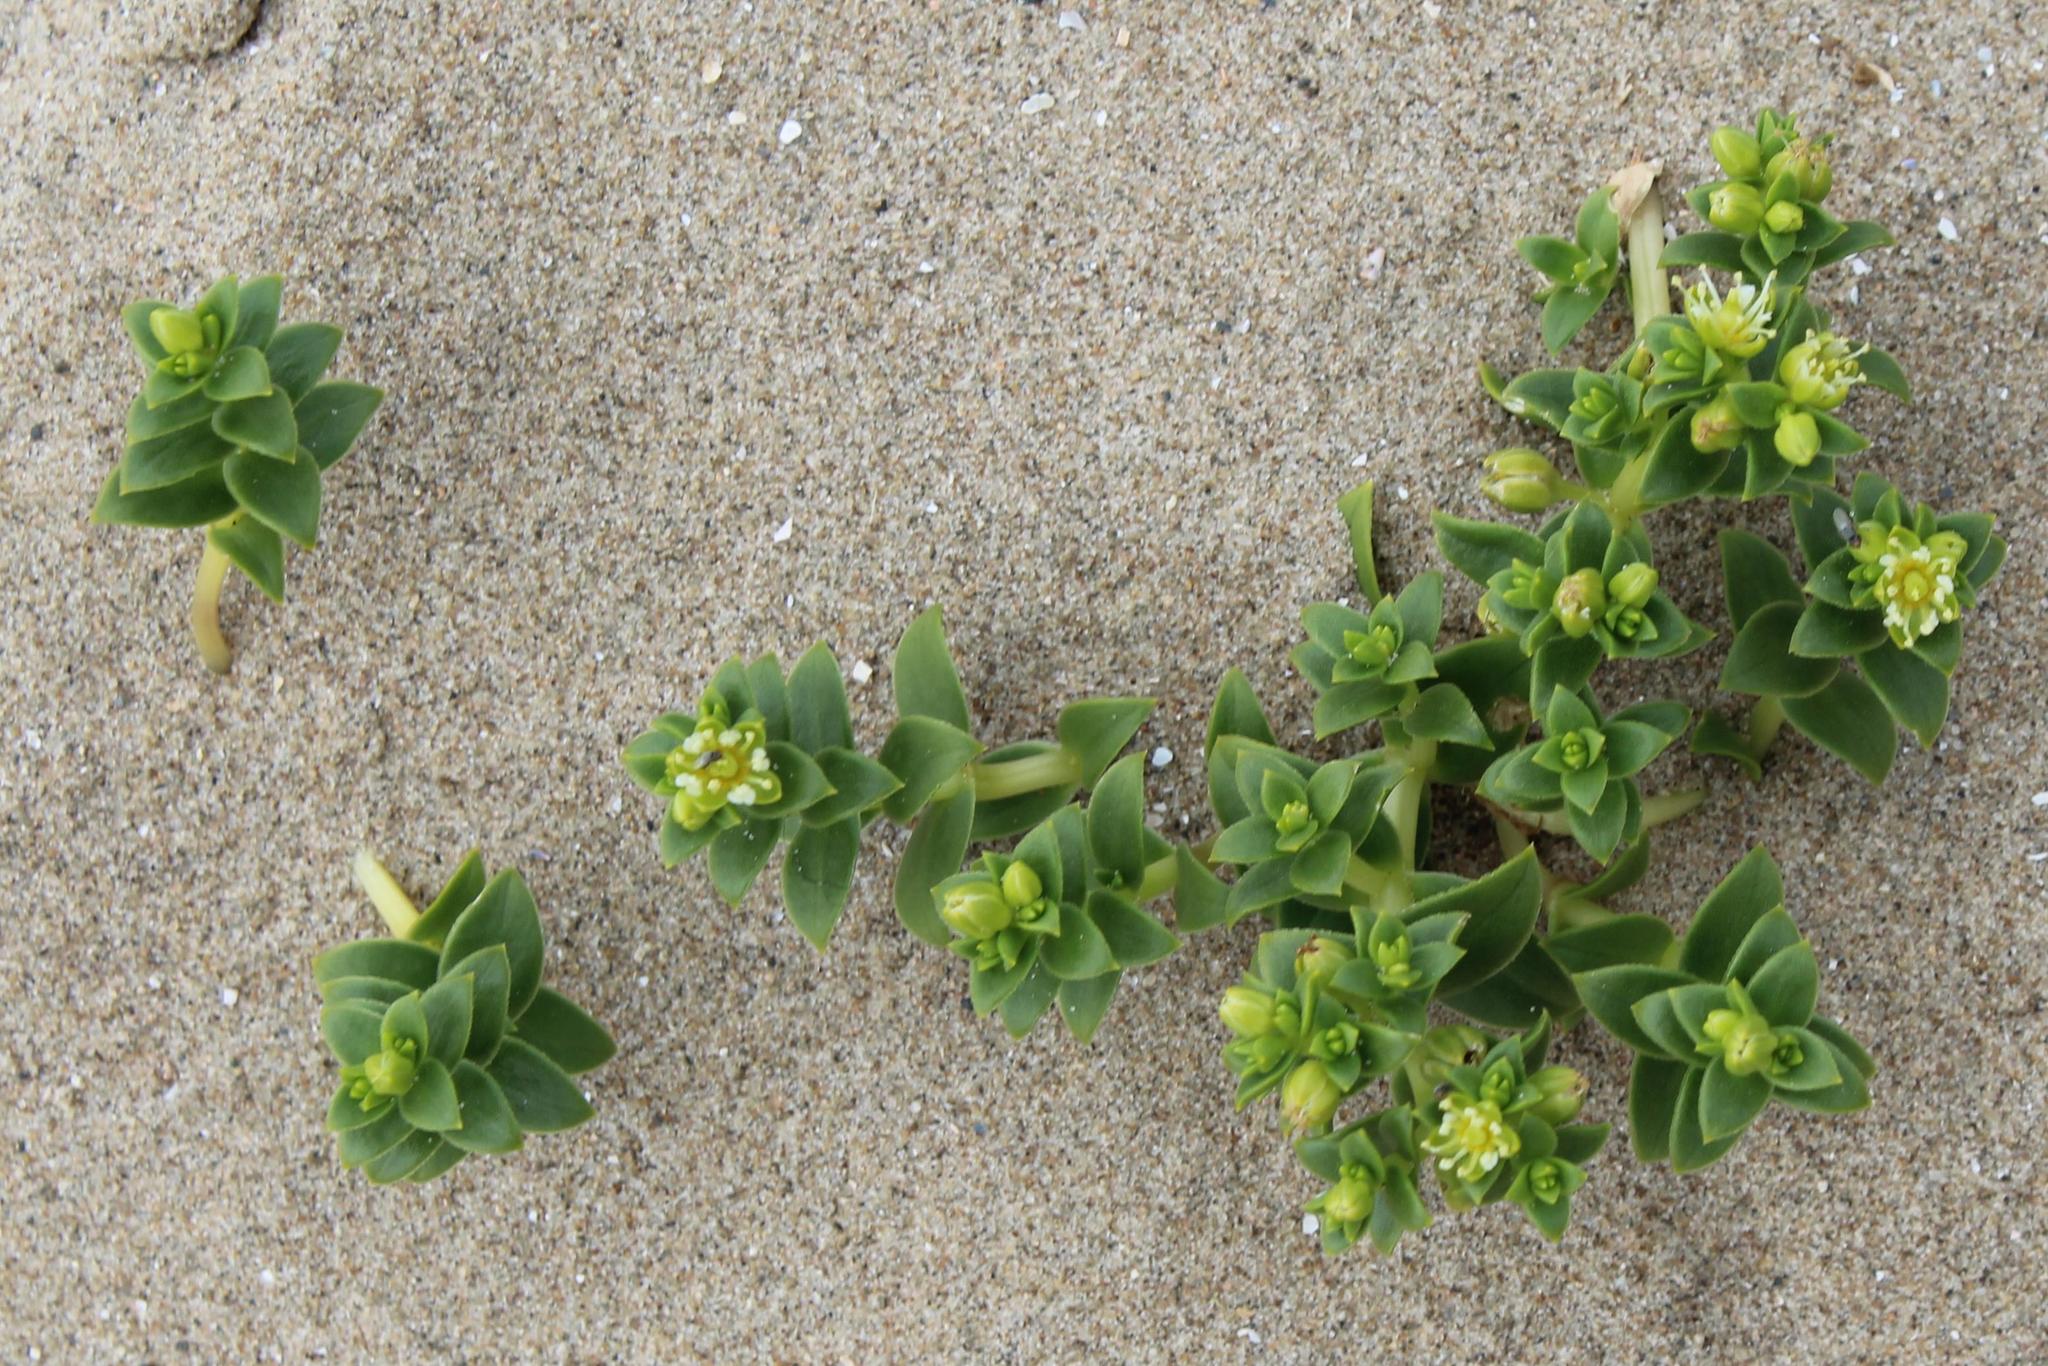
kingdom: Plantae
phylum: Tracheophyta
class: Magnoliopsida
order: Caryophyllales
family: Caryophyllaceae
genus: Honckenya
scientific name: Honckenya peploides
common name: Sea sandwort
